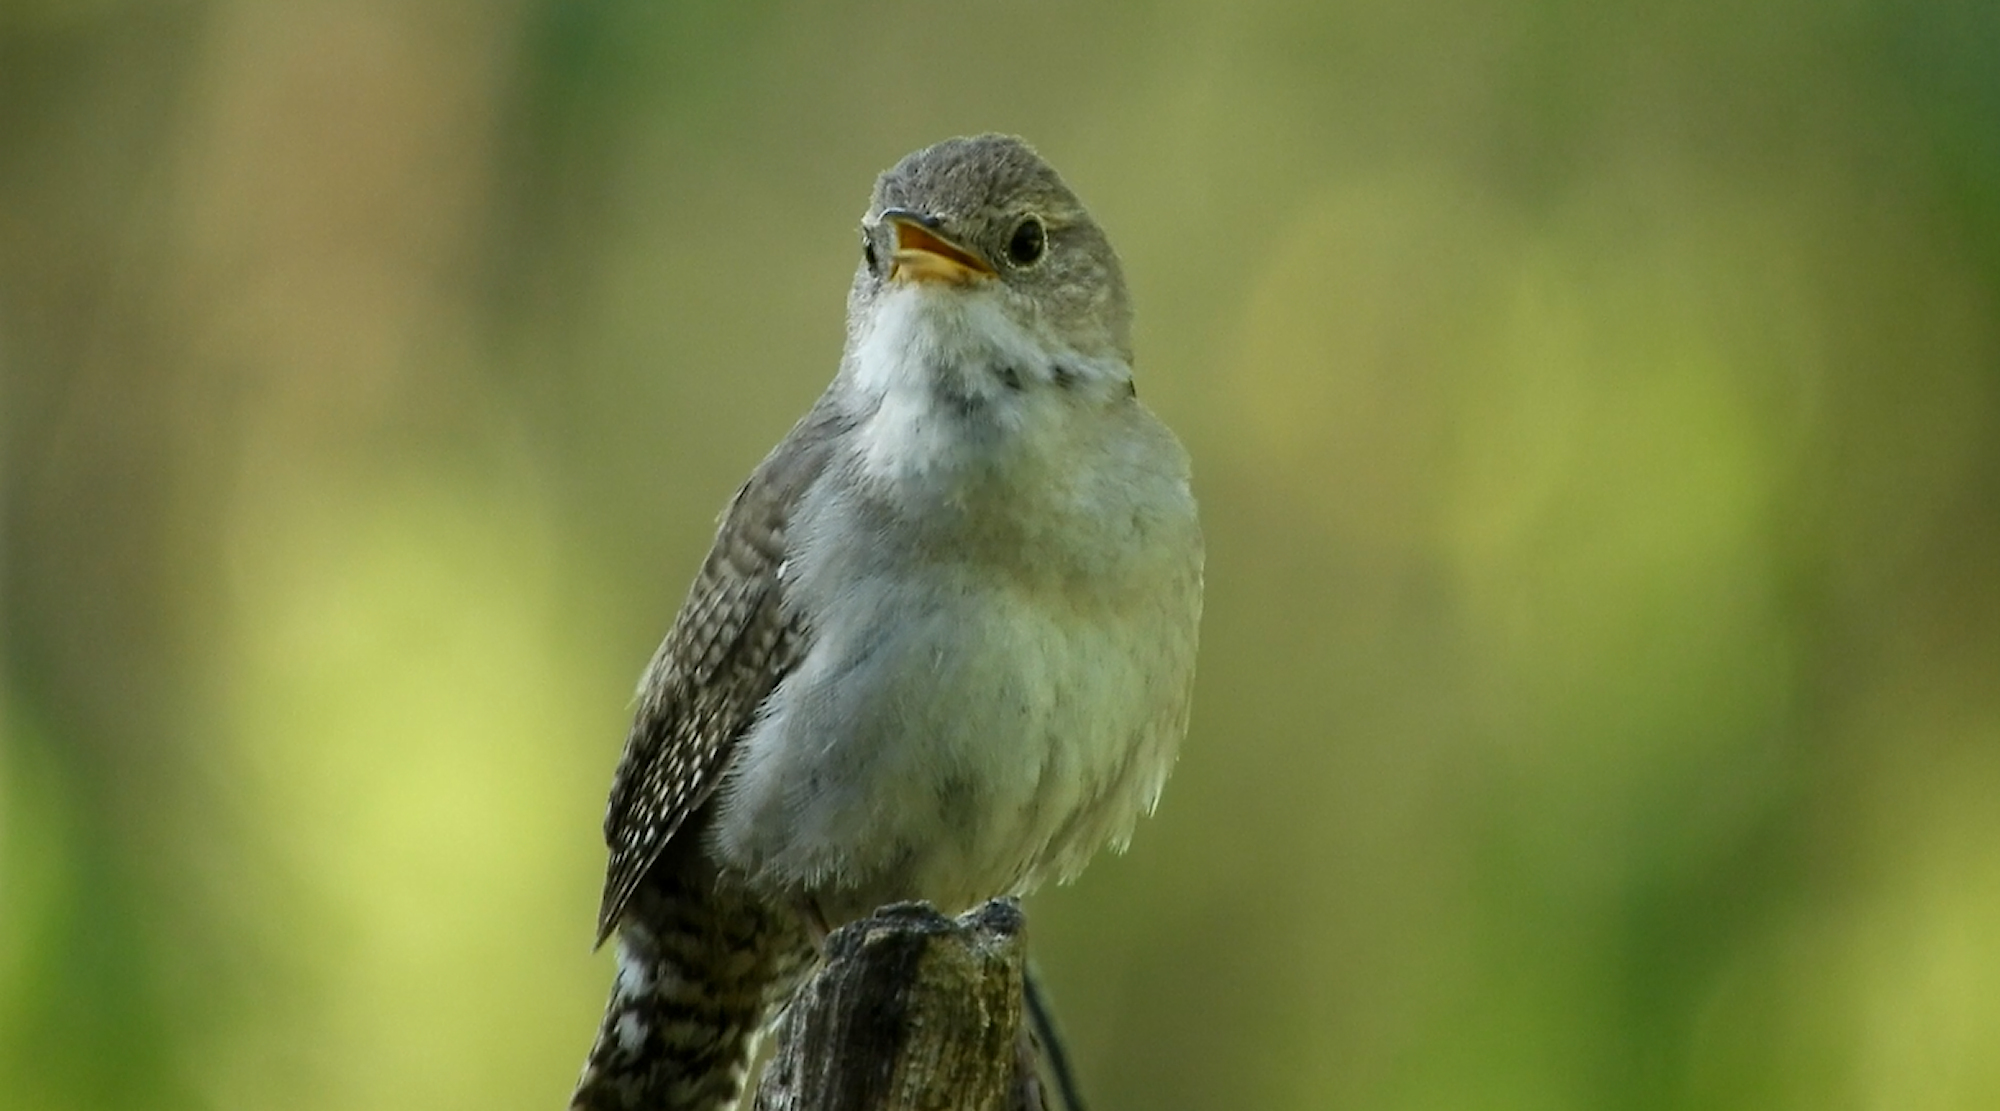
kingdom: Animalia
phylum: Chordata
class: Aves
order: Passeriformes
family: Troglodytidae
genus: Troglodytes
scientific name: Troglodytes aedon
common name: House wren
